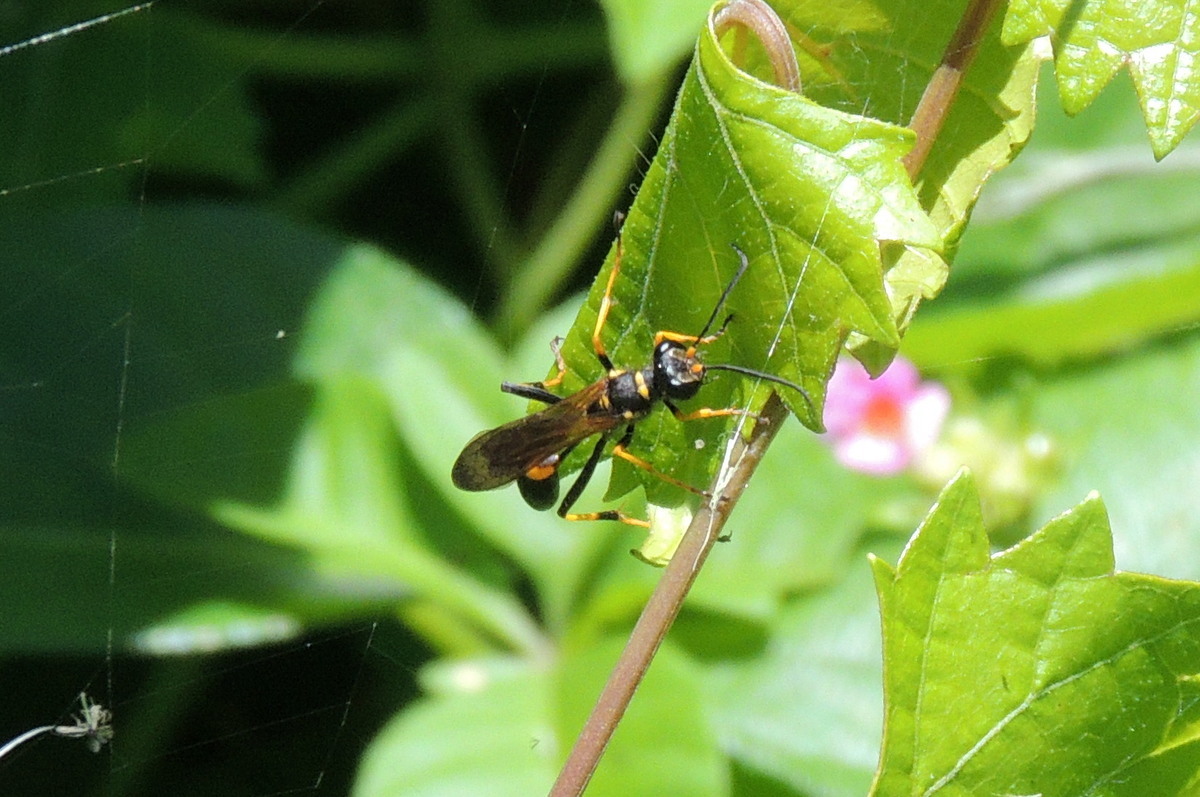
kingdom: Animalia
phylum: Arthropoda
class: Insecta
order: Hymenoptera
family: Sphecidae
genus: Sceliphron
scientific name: Sceliphron caementarium
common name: Mud dauber
